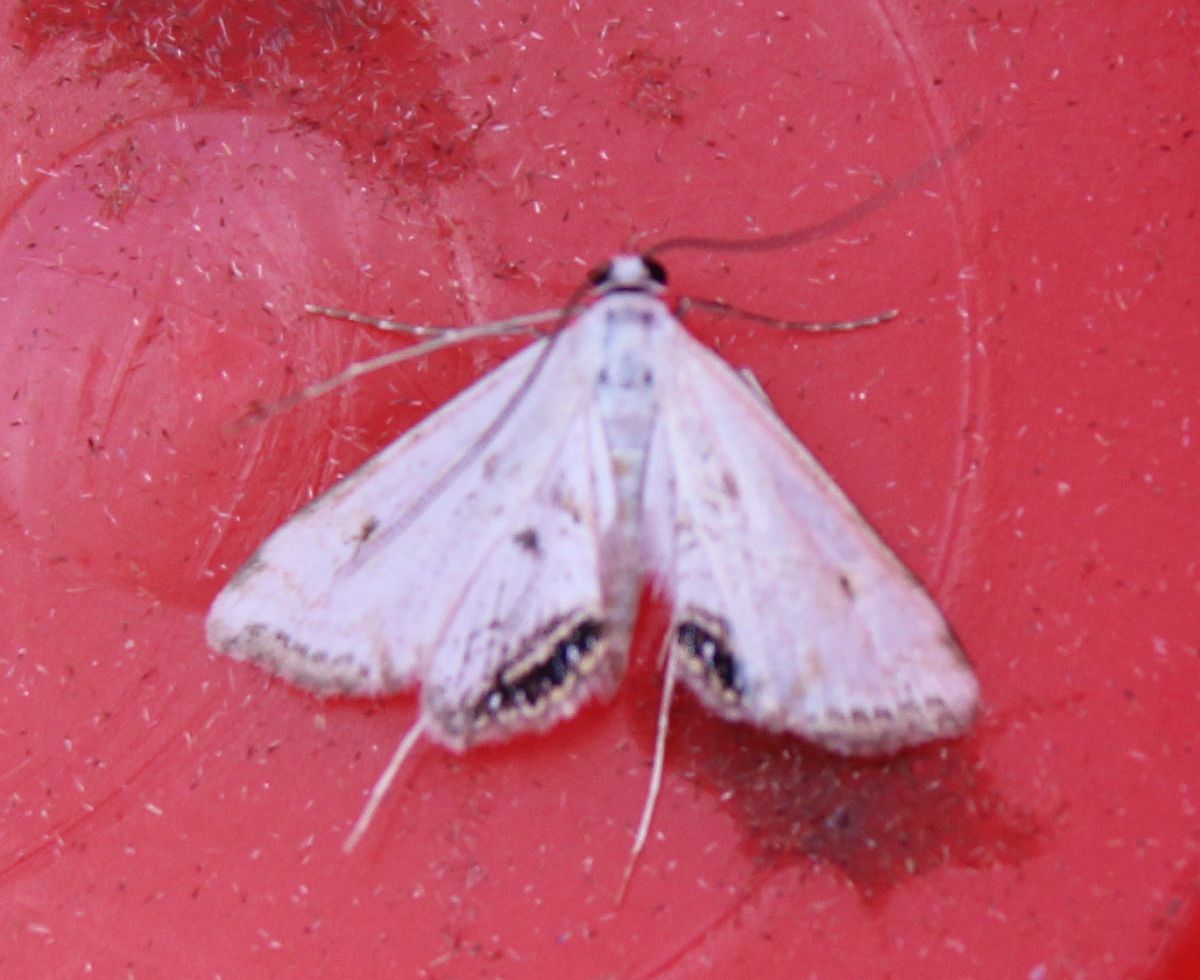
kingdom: Animalia
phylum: Arthropoda
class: Insecta
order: Lepidoptera
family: Crambidae
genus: Cataclysta
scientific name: Cataclysta lemnata
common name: Small china-mark
